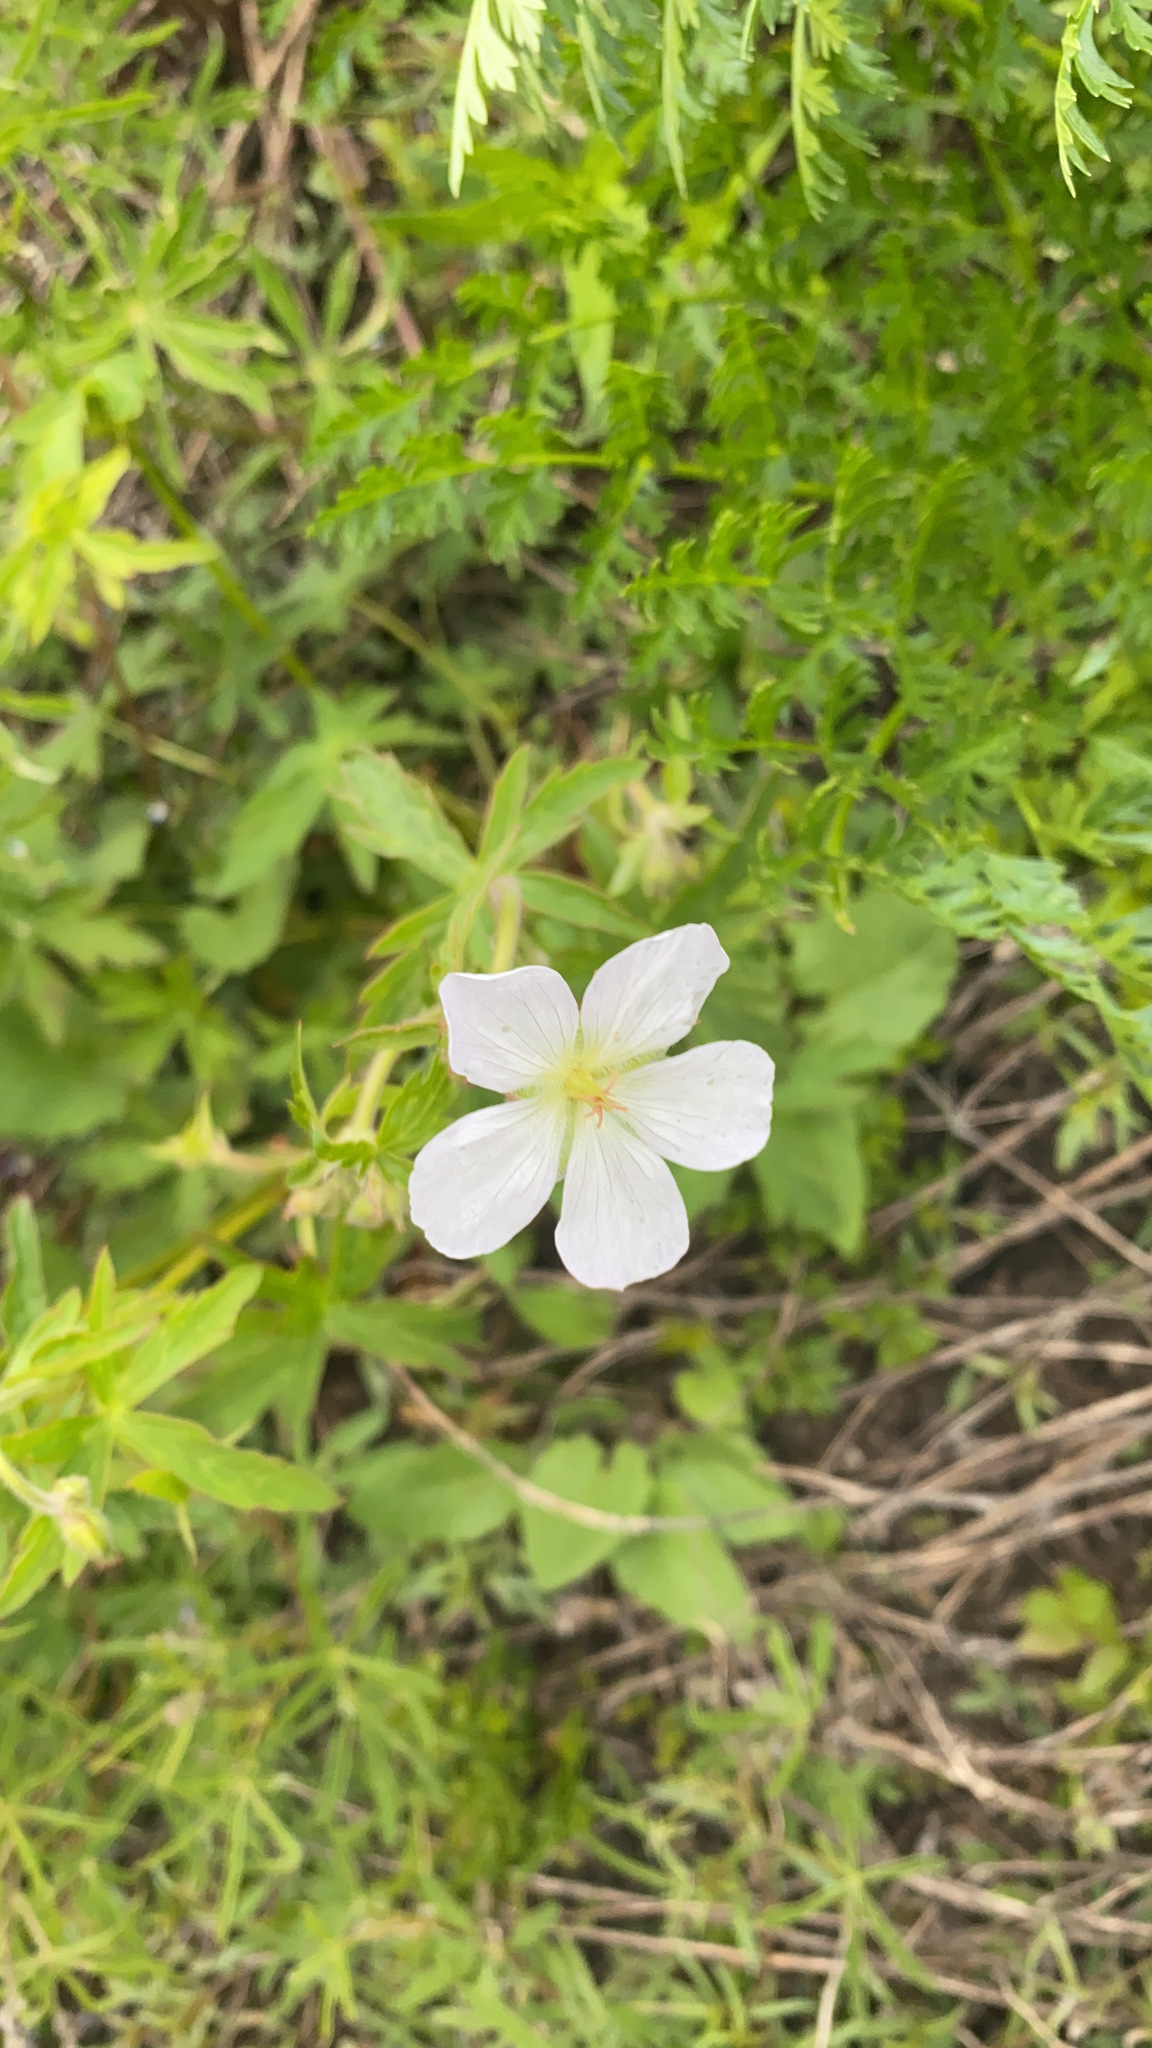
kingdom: Plantae
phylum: Tracheophyta
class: Magnoliopsida
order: Geraniales
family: Geraniaceae
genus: Geranium
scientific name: Geranium richardsonii
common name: Richardson's crane's-bill
